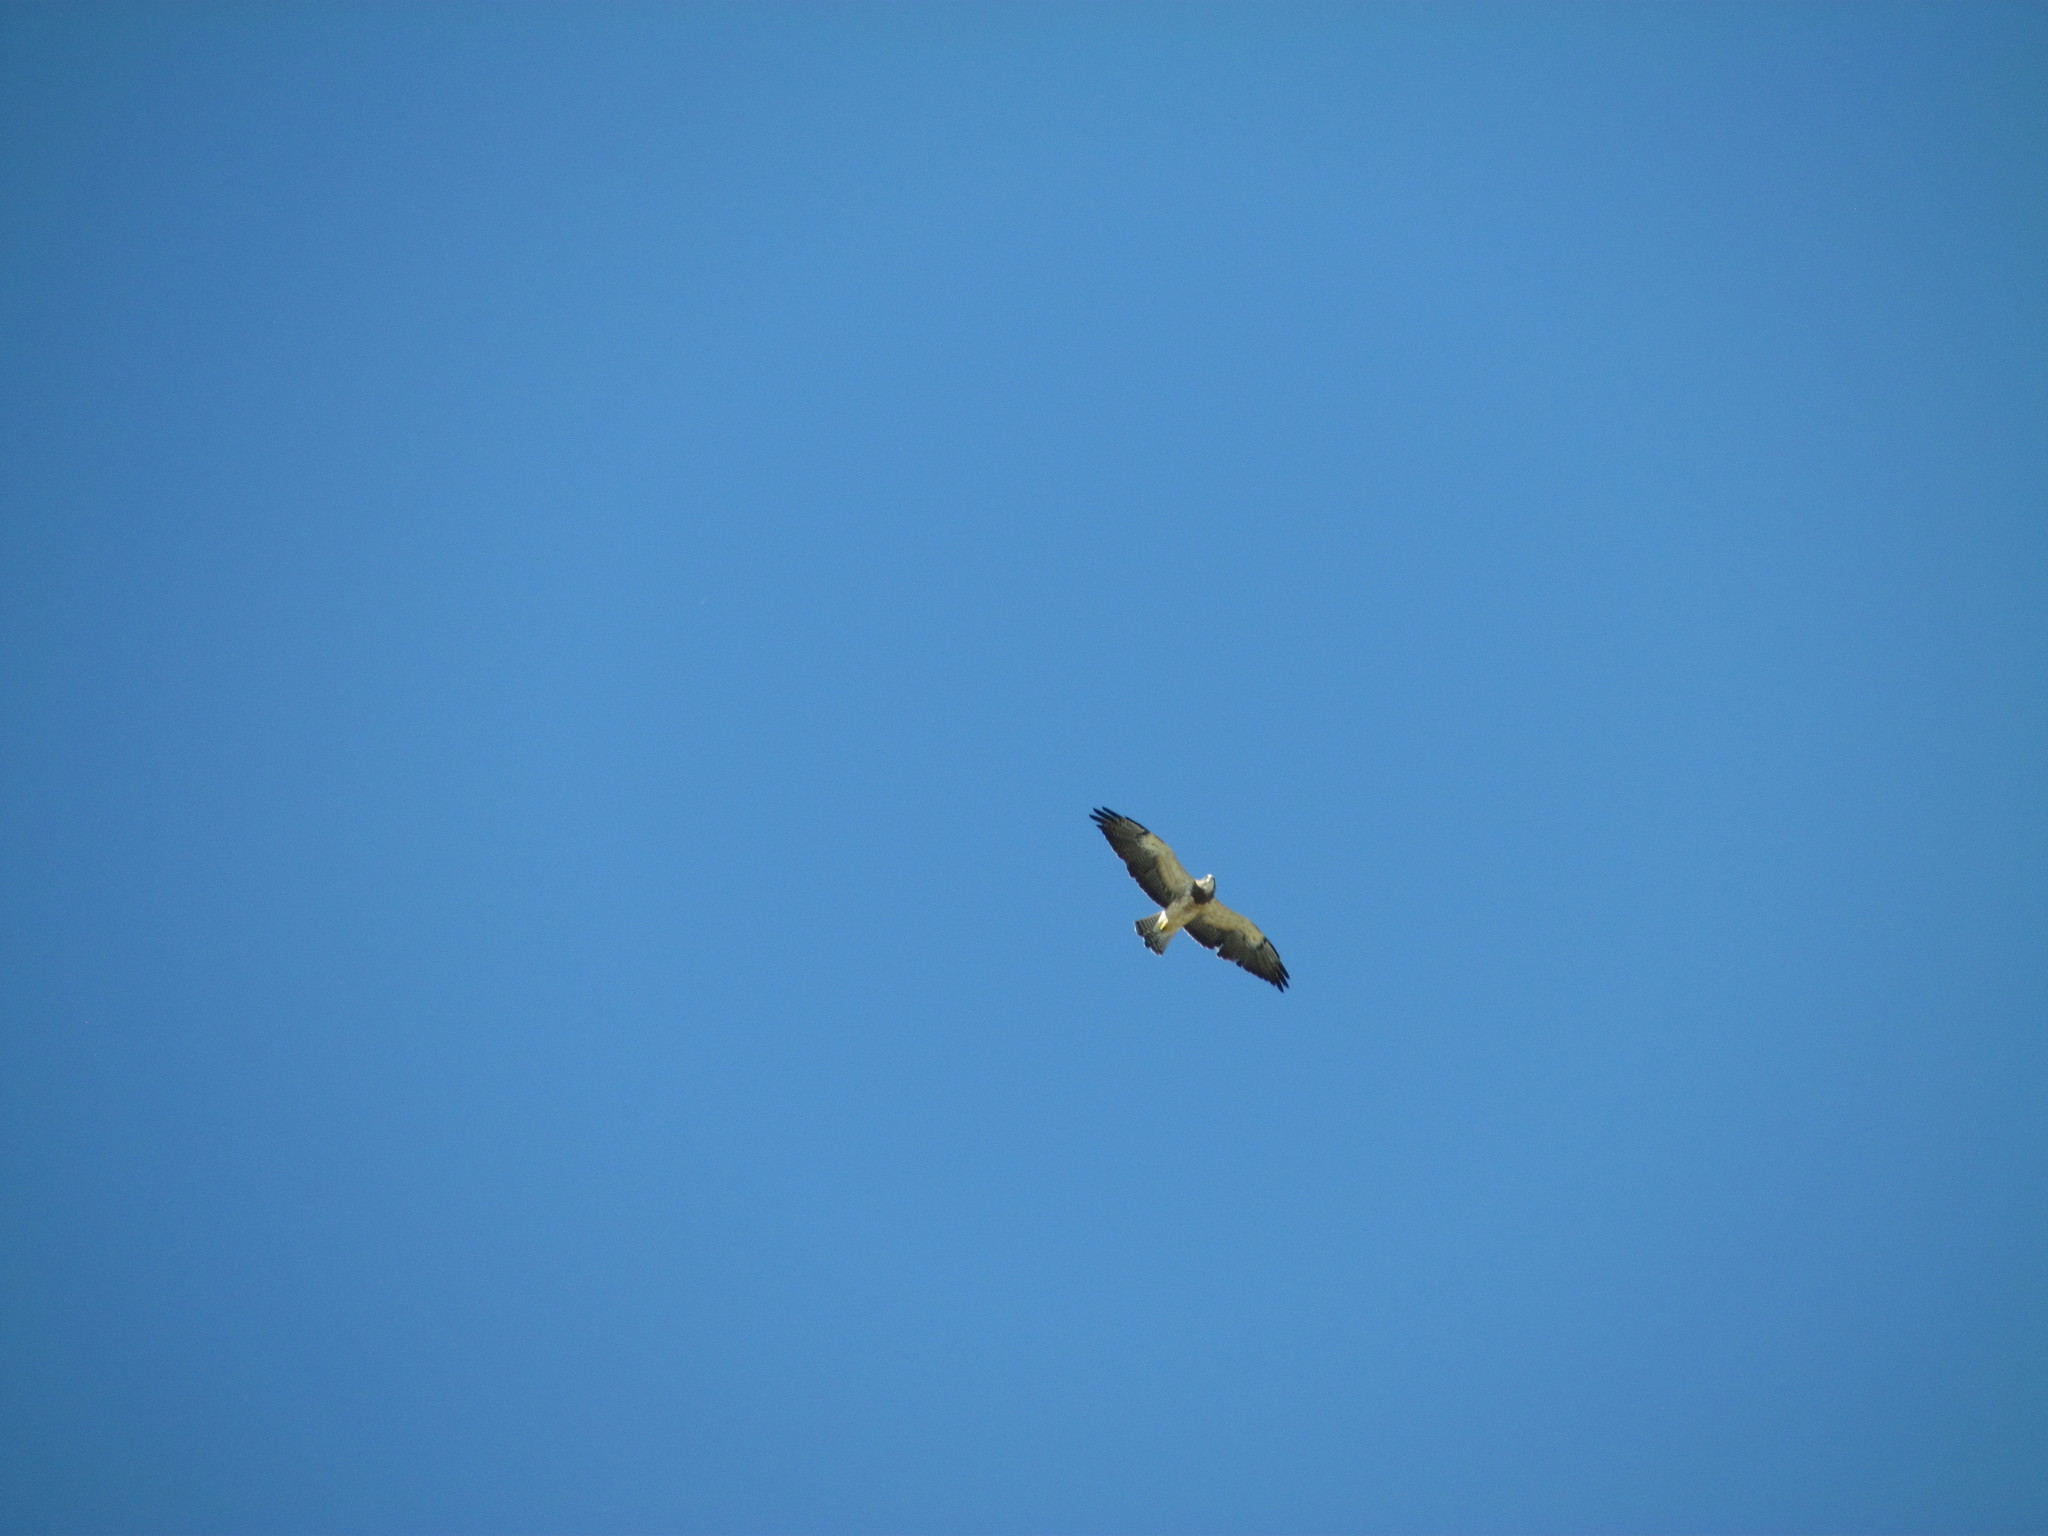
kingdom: Animalia
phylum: Chordata
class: Aves
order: Accipitriformes
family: Accipitridae
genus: Buteo
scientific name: Buteo swainsoni
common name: Swainson's hawk
